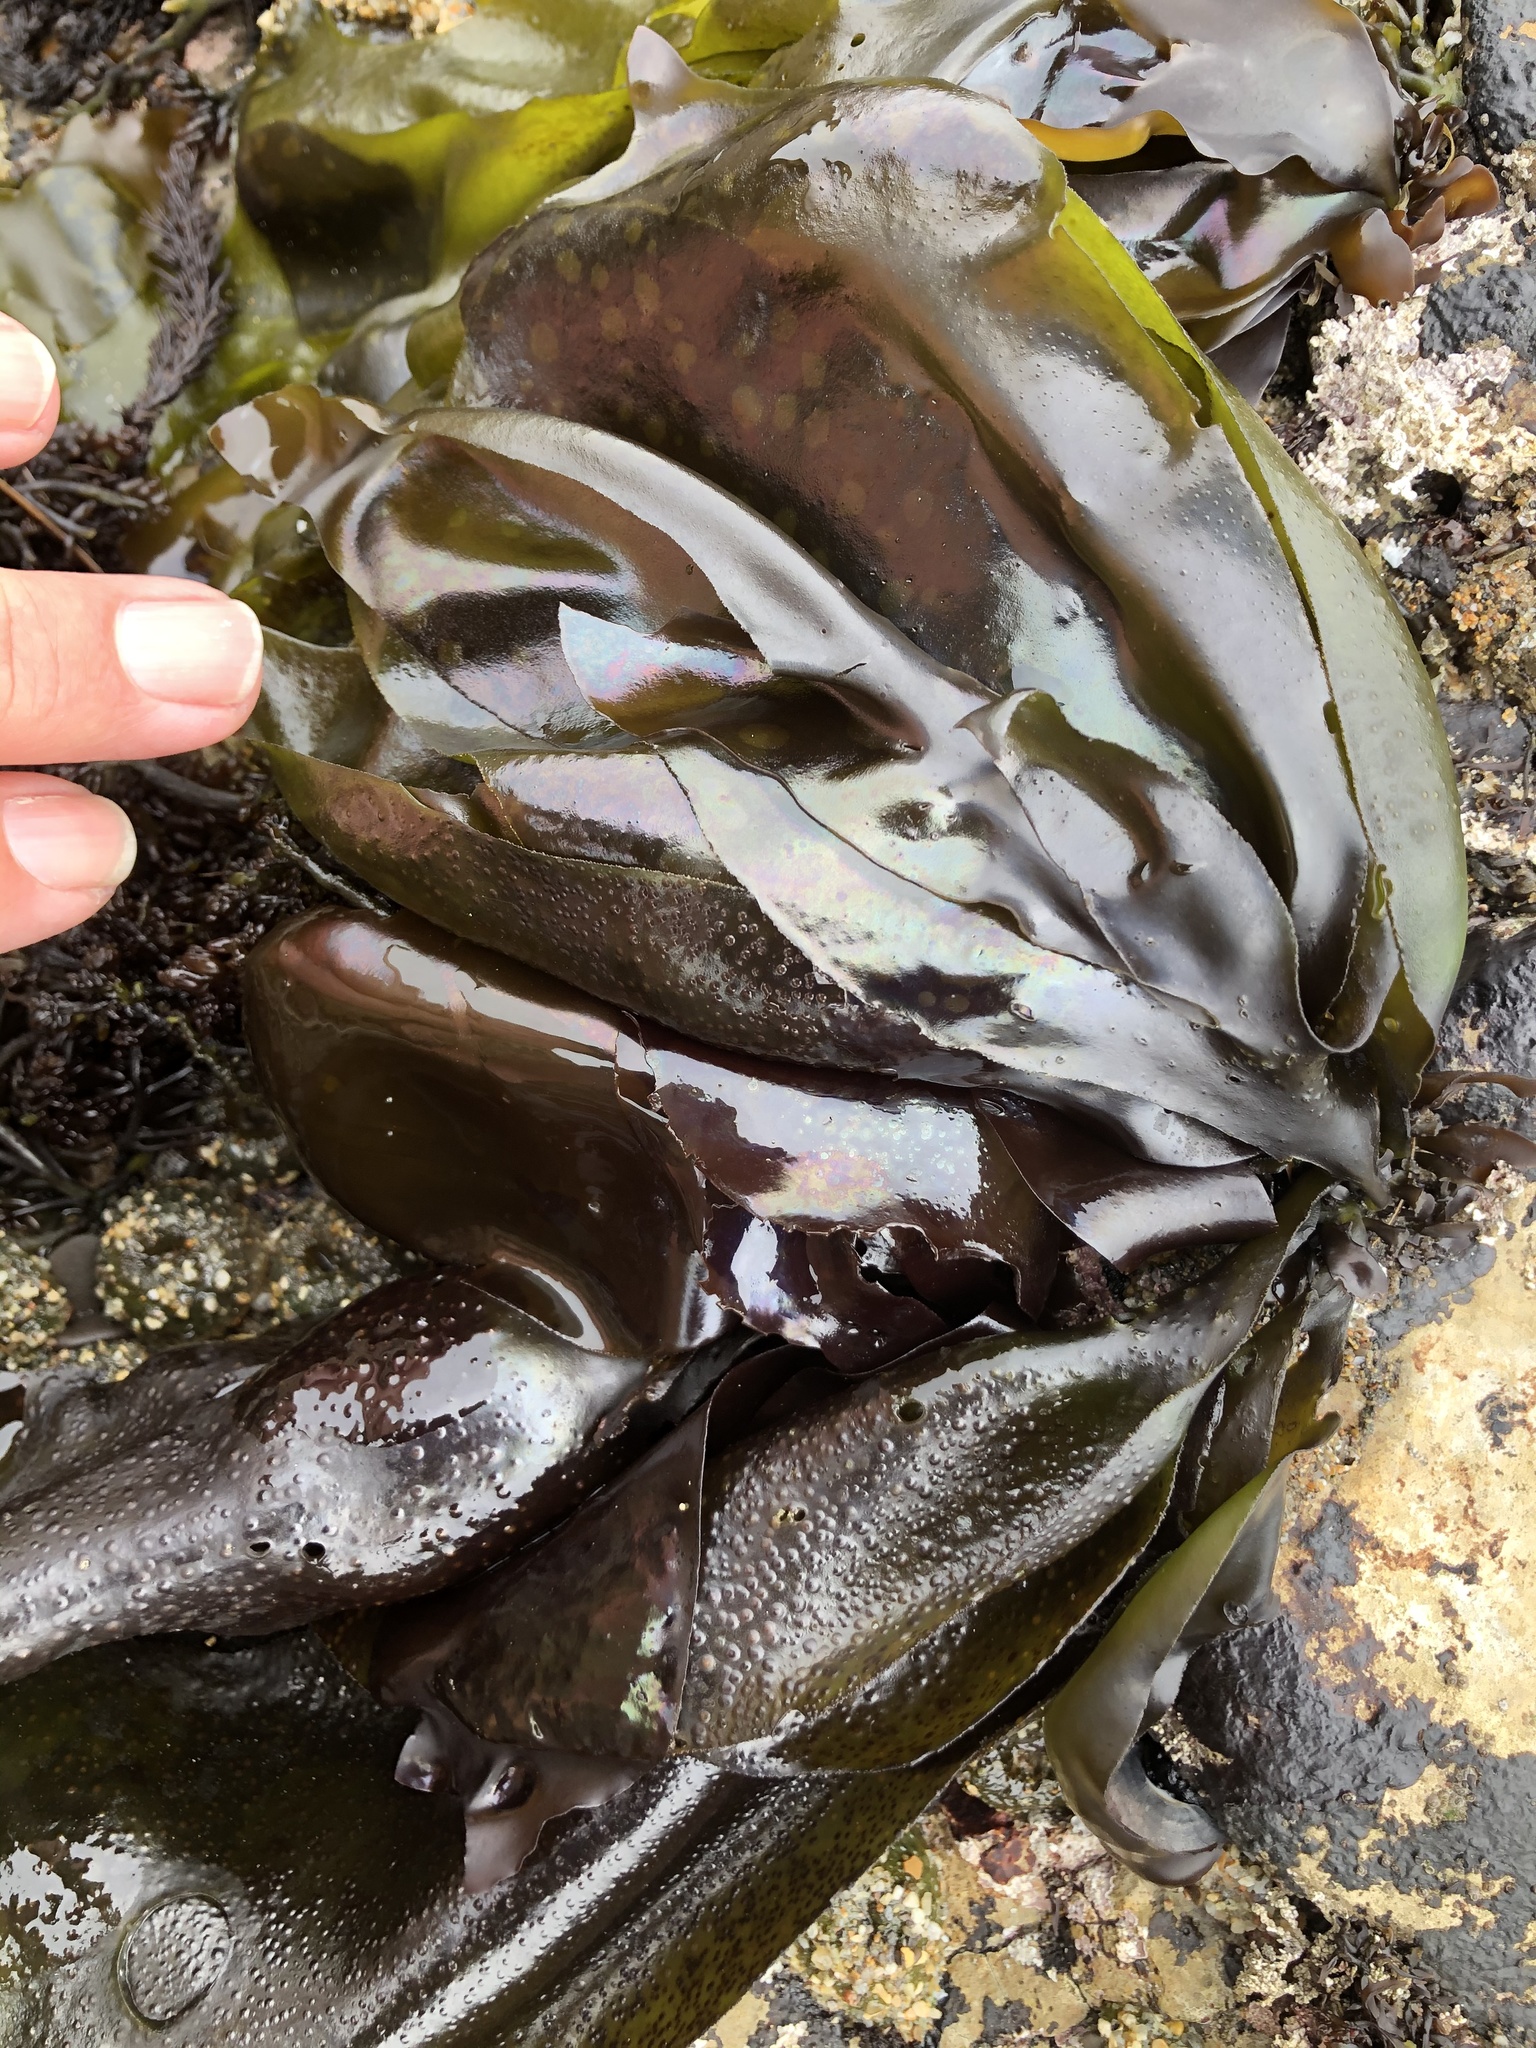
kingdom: Plantae
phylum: Rhodophyta
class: Florideophyceae
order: Gigartinales
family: Gigartinaceae
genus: Mazzaella
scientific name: Mazzaella splendens
